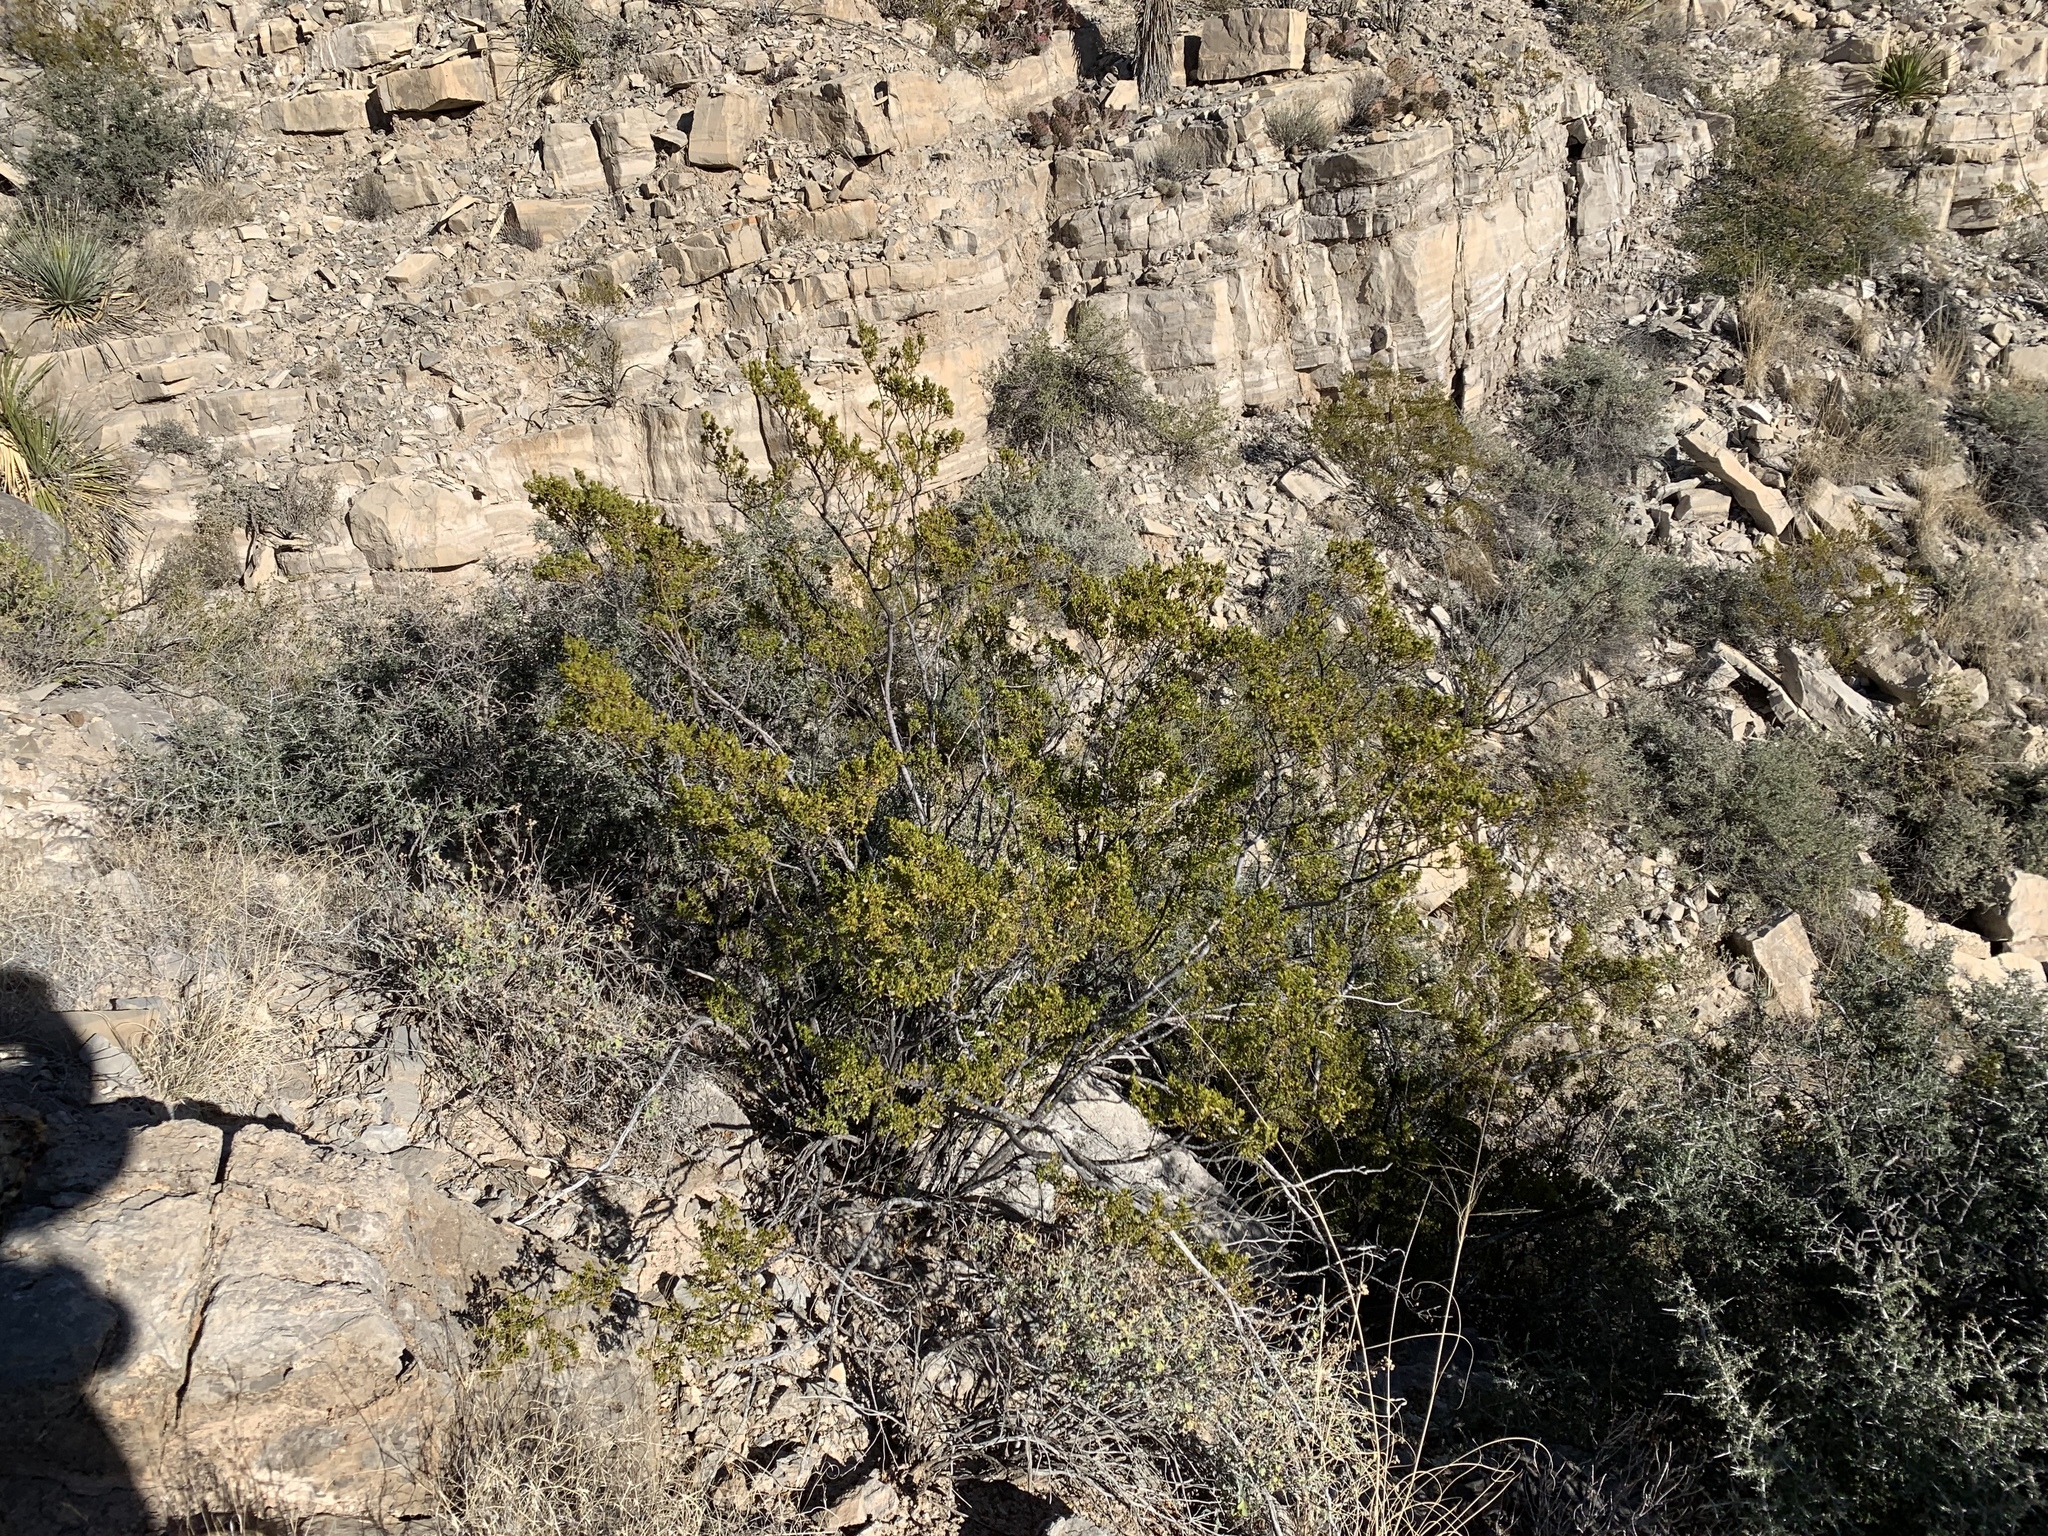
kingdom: Plantae
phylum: Tracheophyta
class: Magnoliopsida
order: Zygophyllales
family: Zygophyllaceae
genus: Larrea
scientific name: Larrea tridentata
